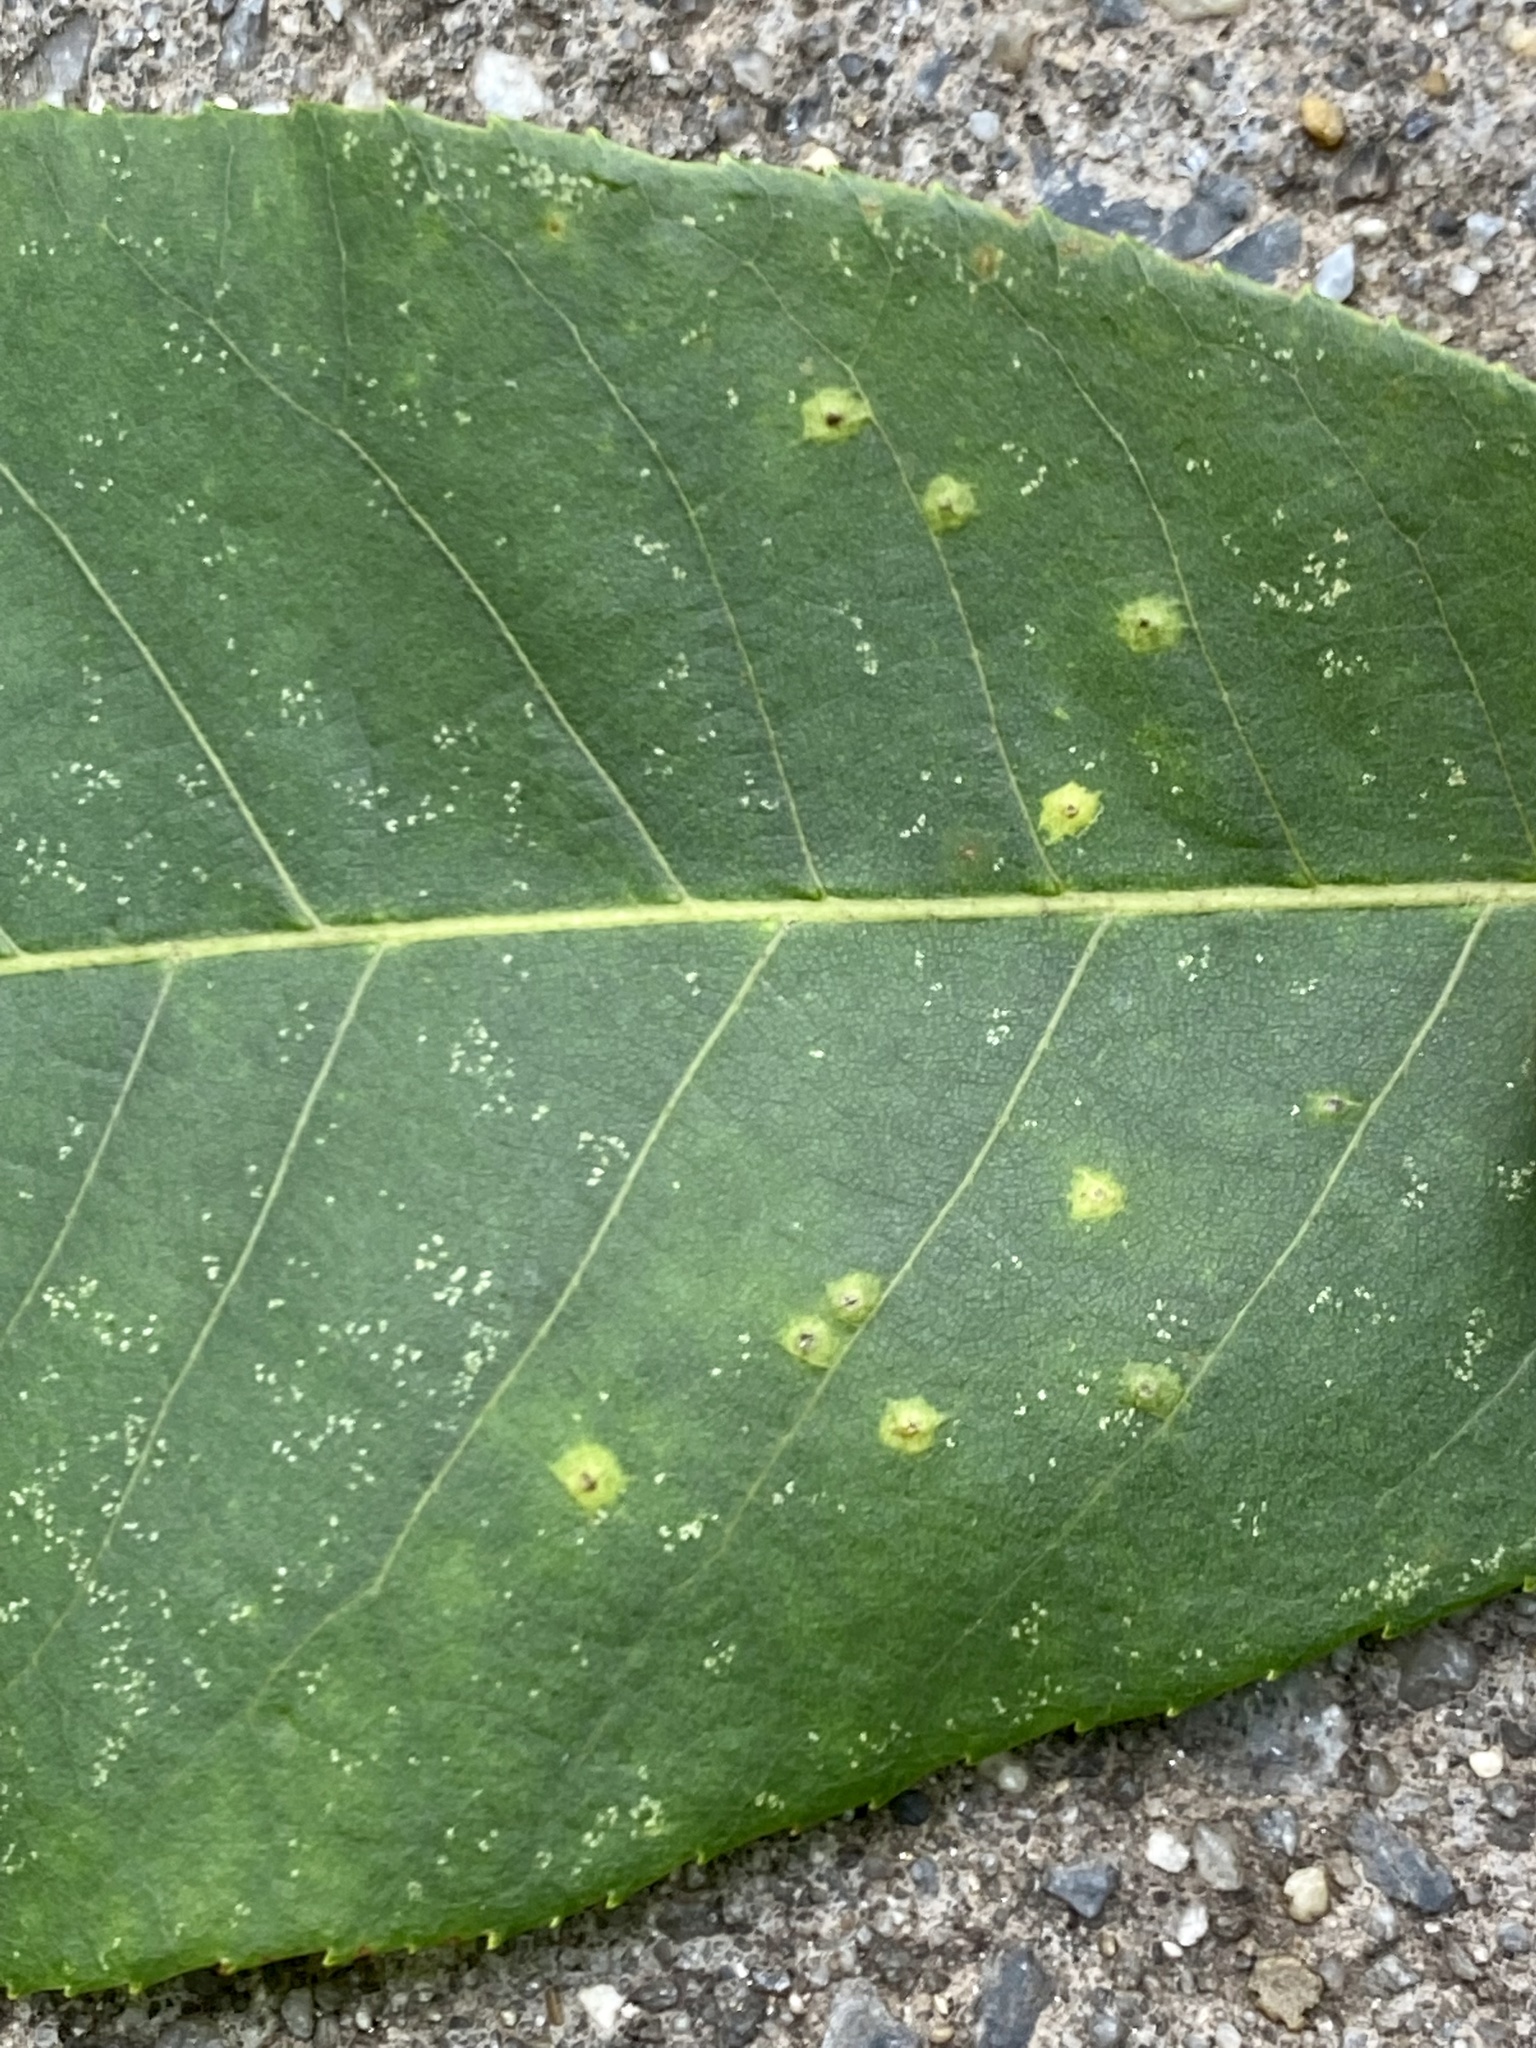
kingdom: Animalia
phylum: Arthropoda
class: Insecta
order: Diptera
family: Cecidomyiidae
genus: Caryomyia
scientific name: Caryomyia caryae
